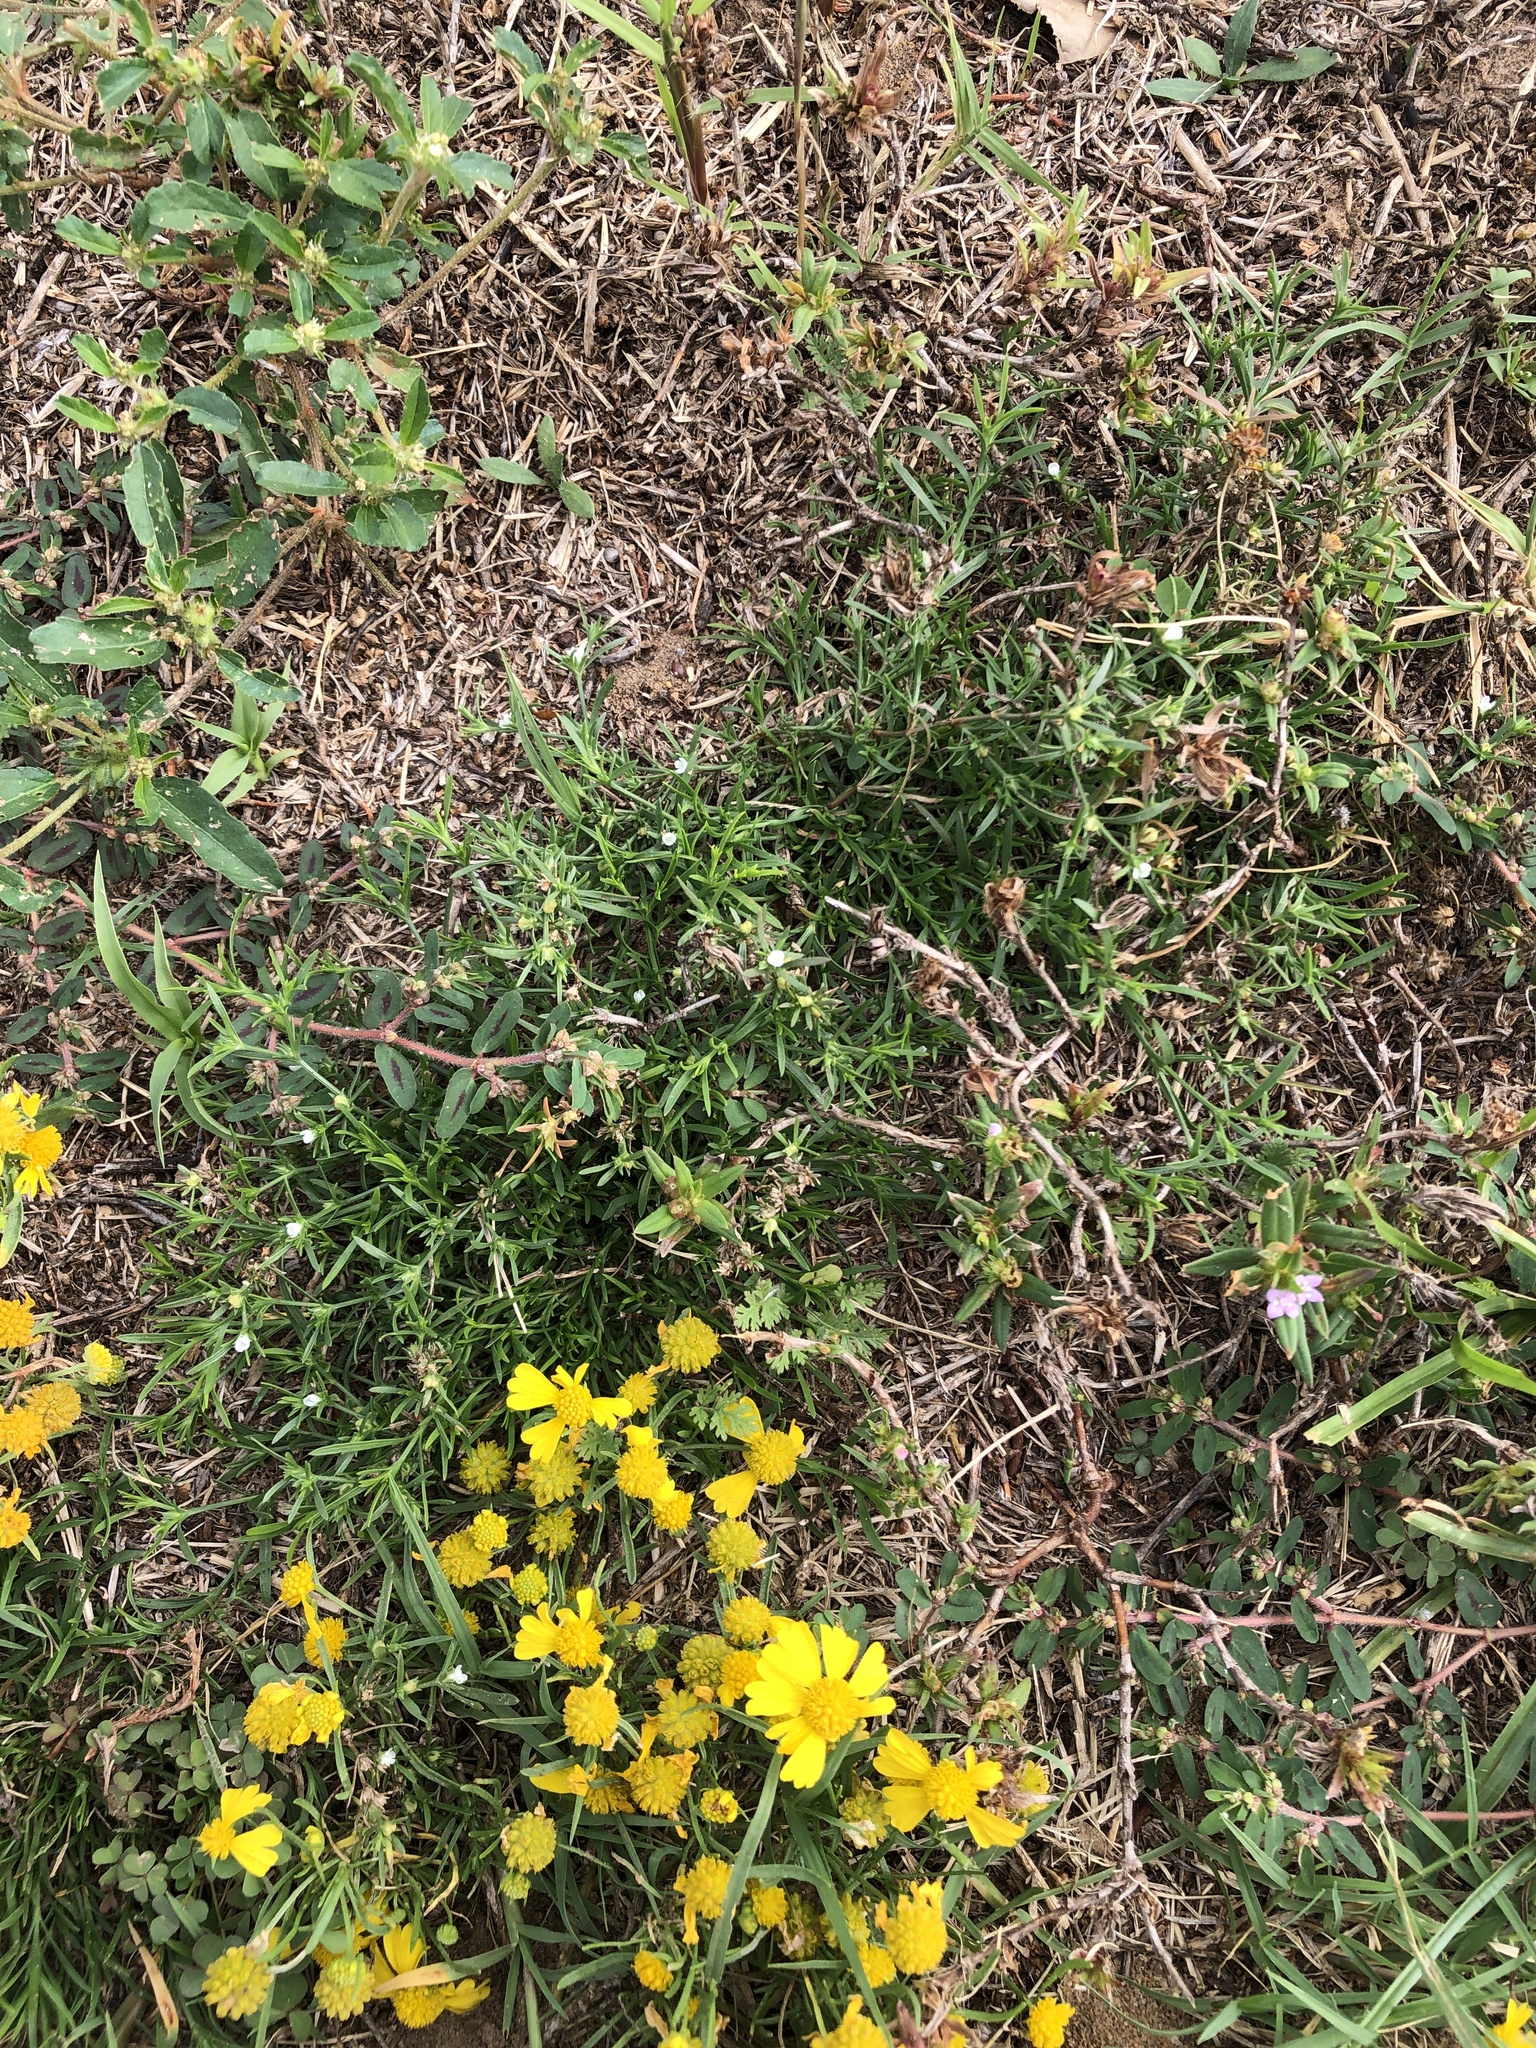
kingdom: Plantae
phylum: Tracheophyta
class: Magnoliopsida
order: Lamiales
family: Tetrachondraceae
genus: Polypremum
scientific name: Polypremum procumbens
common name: Juniper-leaf
